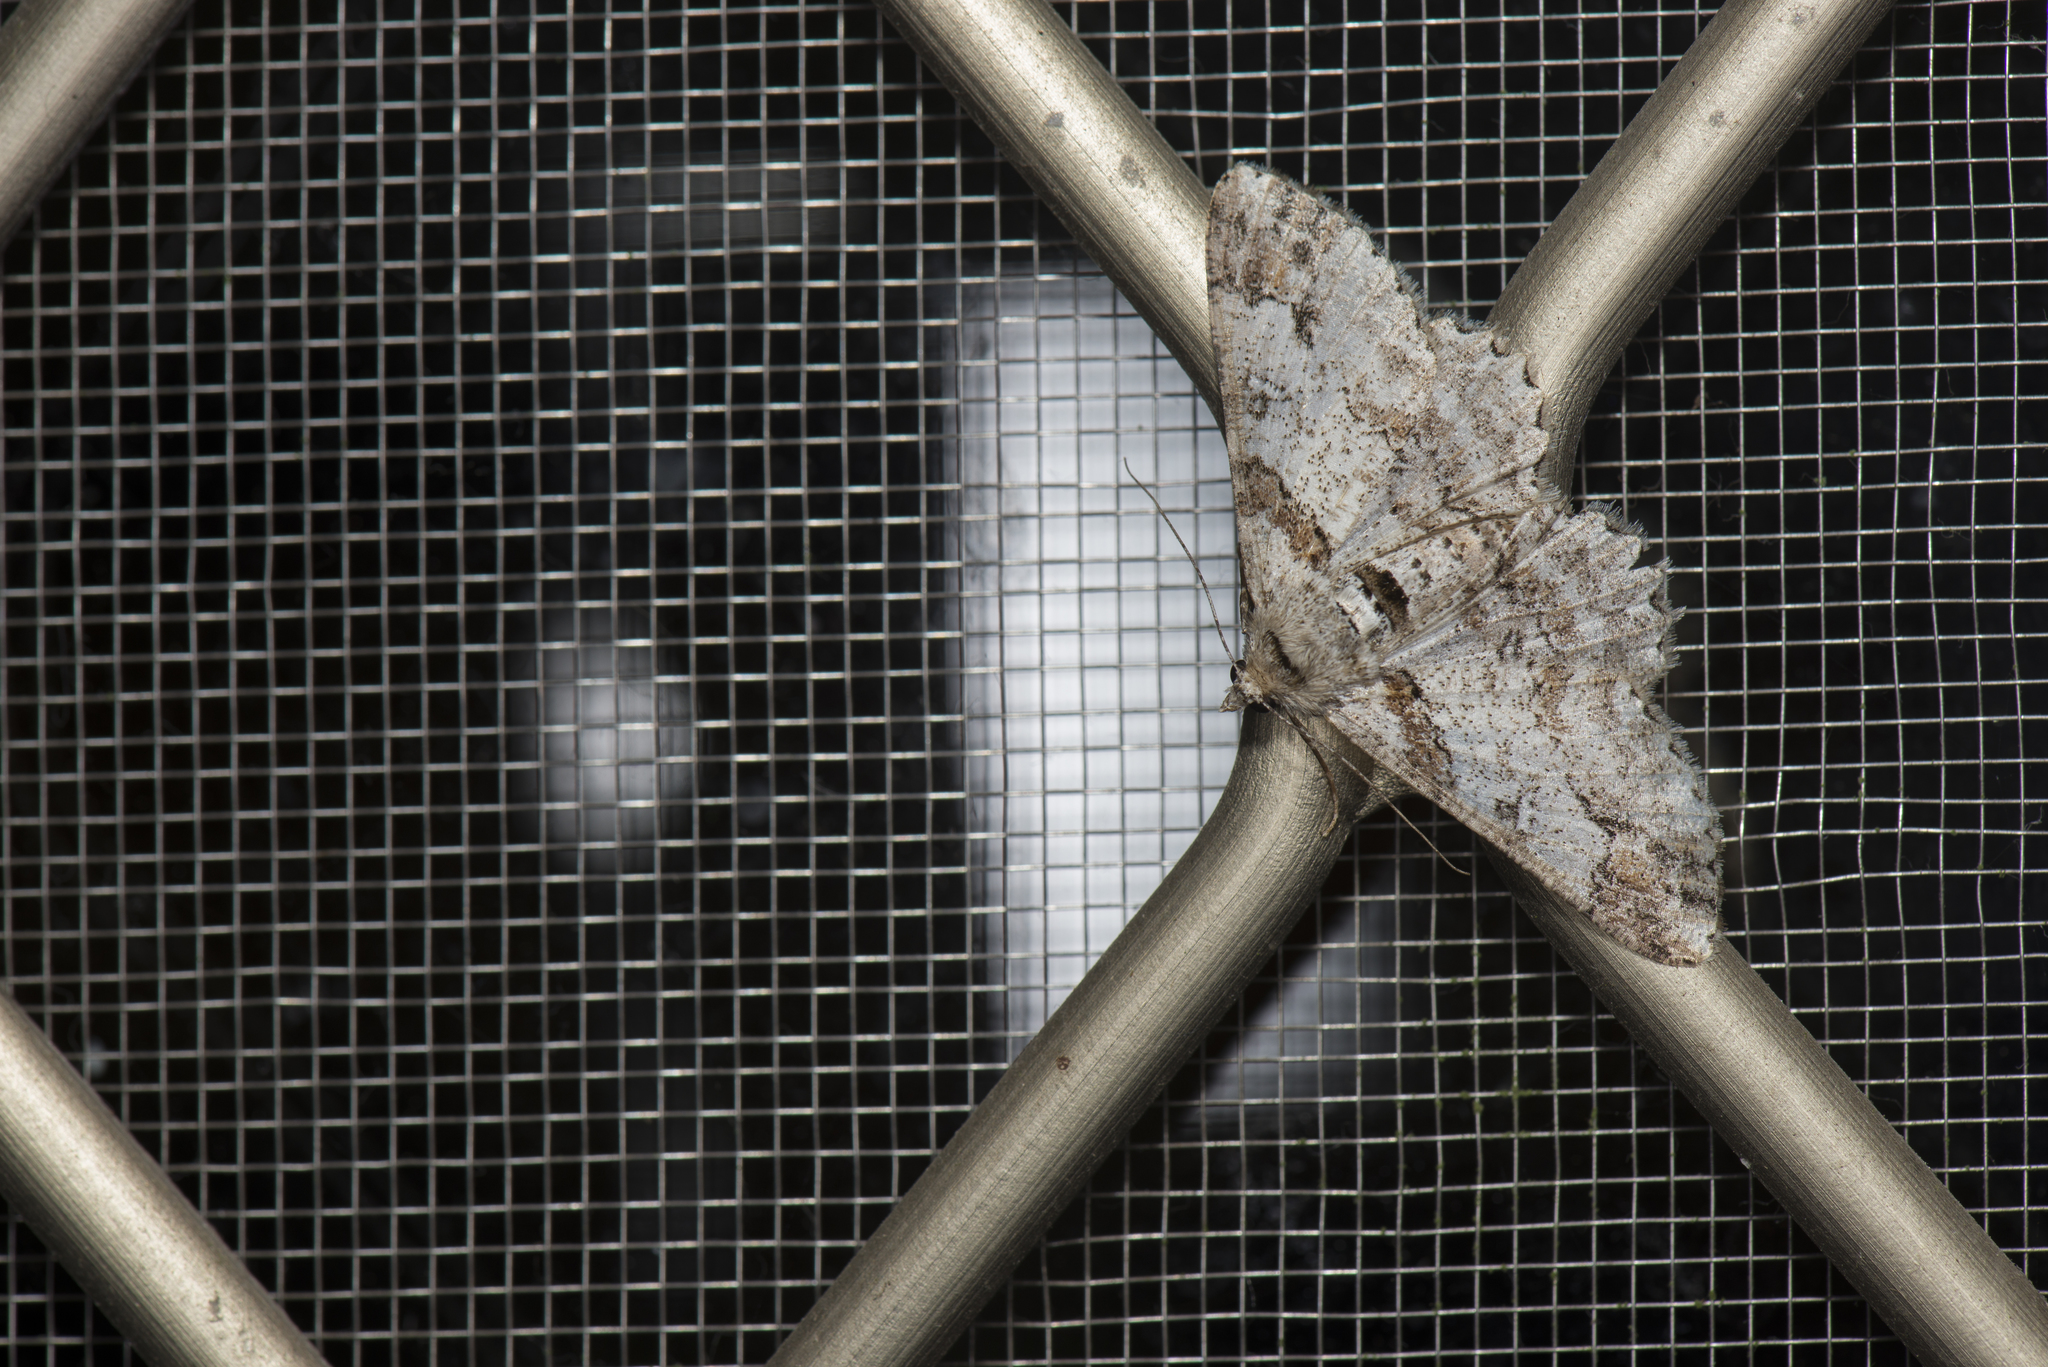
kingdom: Animalia
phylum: Arthropoda
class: Insecta
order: Lepidoptera
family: Geometridae
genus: Cleora
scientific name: Cleora fraterna
